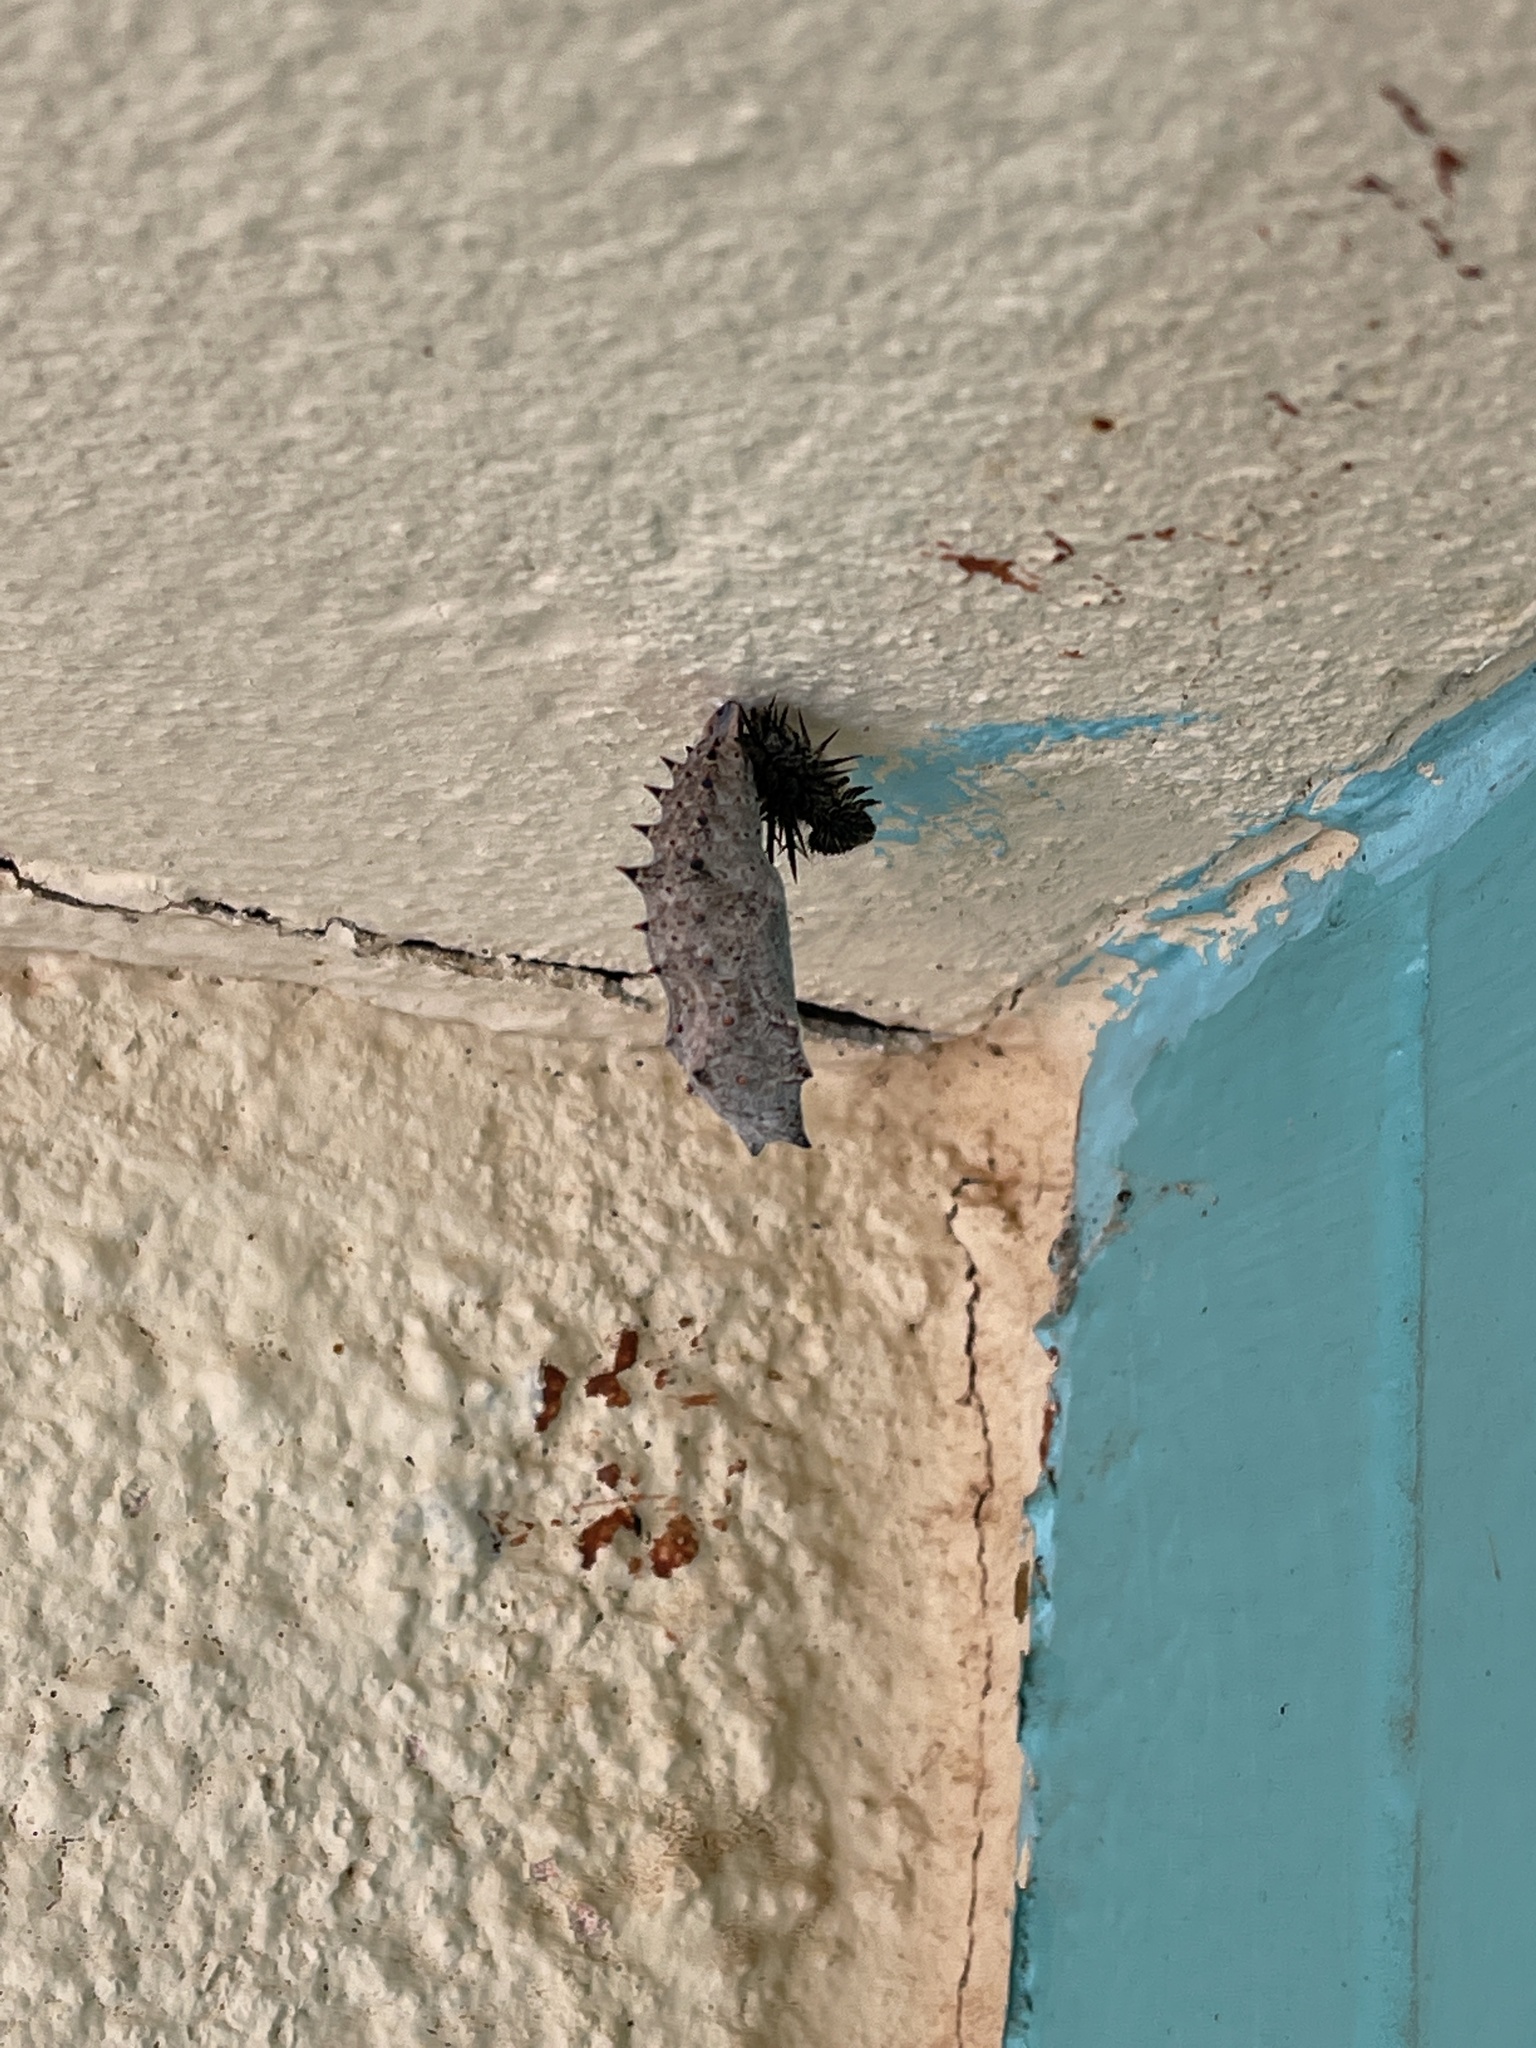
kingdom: Animalia
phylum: Arthropoda
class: Insecta
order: Lepidoptera
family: Nymphalidae
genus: Nymphalis
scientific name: Nymphalis antiopa
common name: Camberwell beauty
